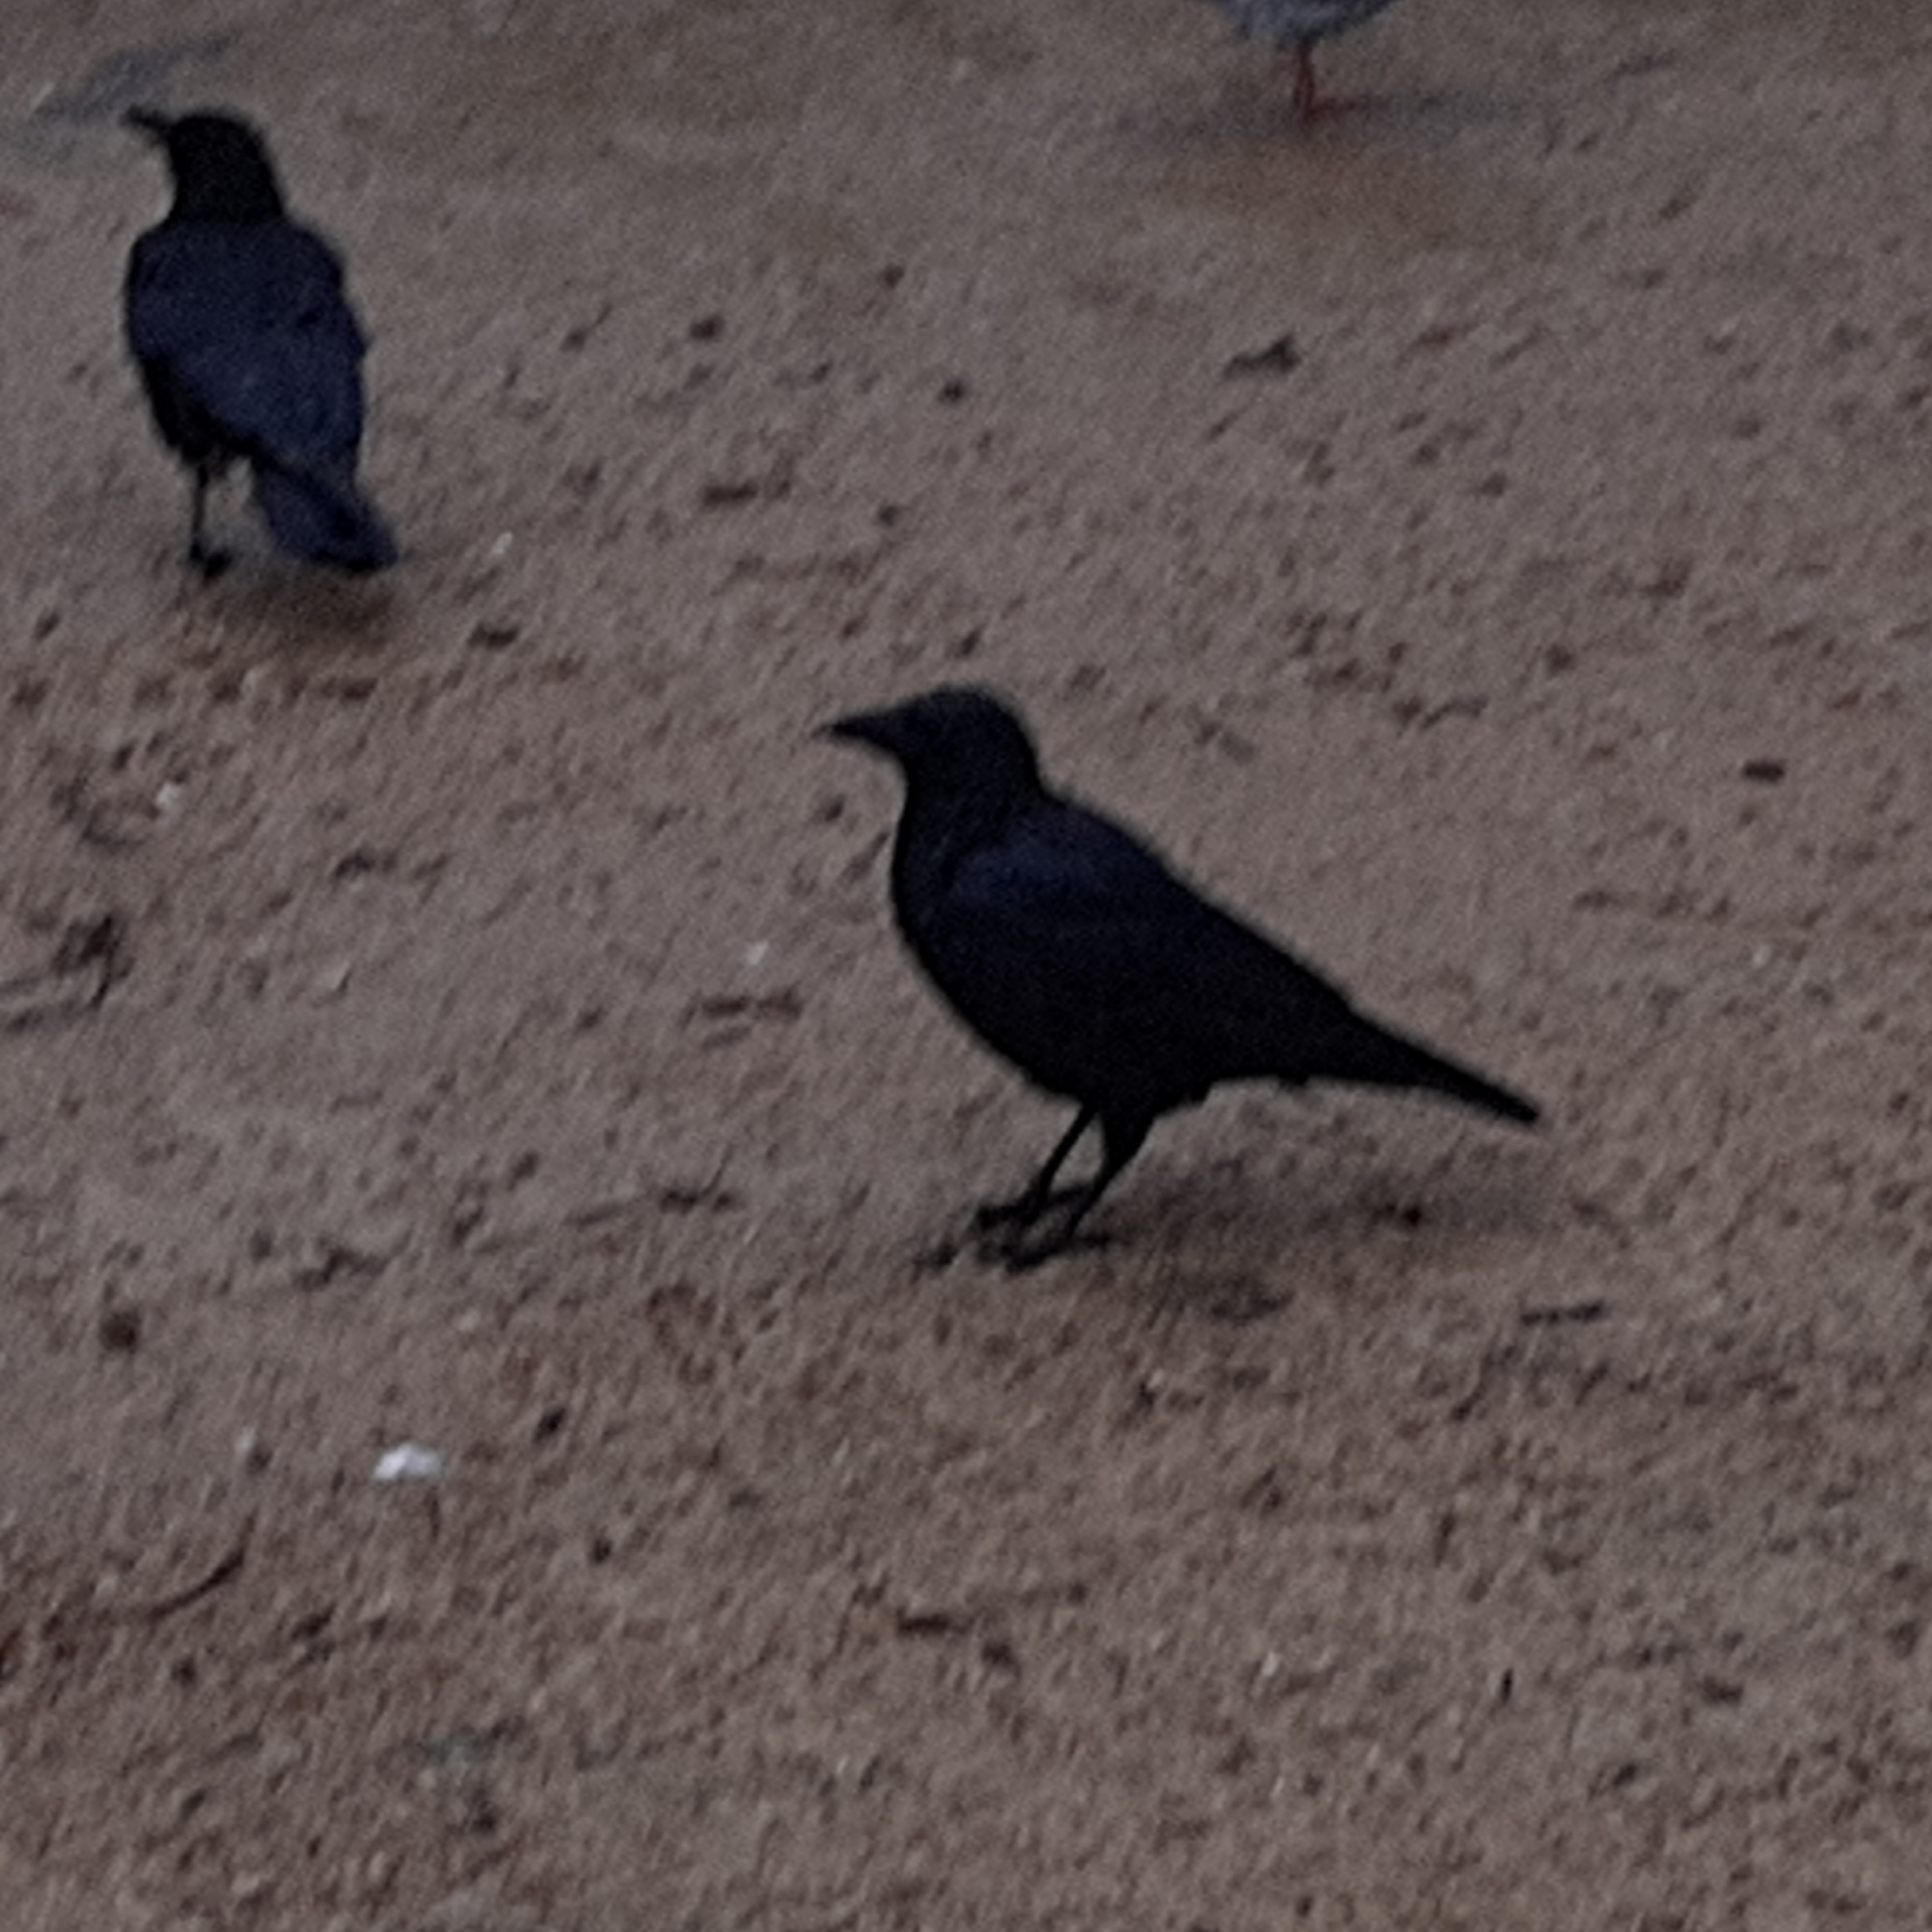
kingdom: Animalia
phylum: Chordata
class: Aves
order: Passeriformes
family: Corvidae
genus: Corvus
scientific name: Corvus corone
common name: Carrion crow
